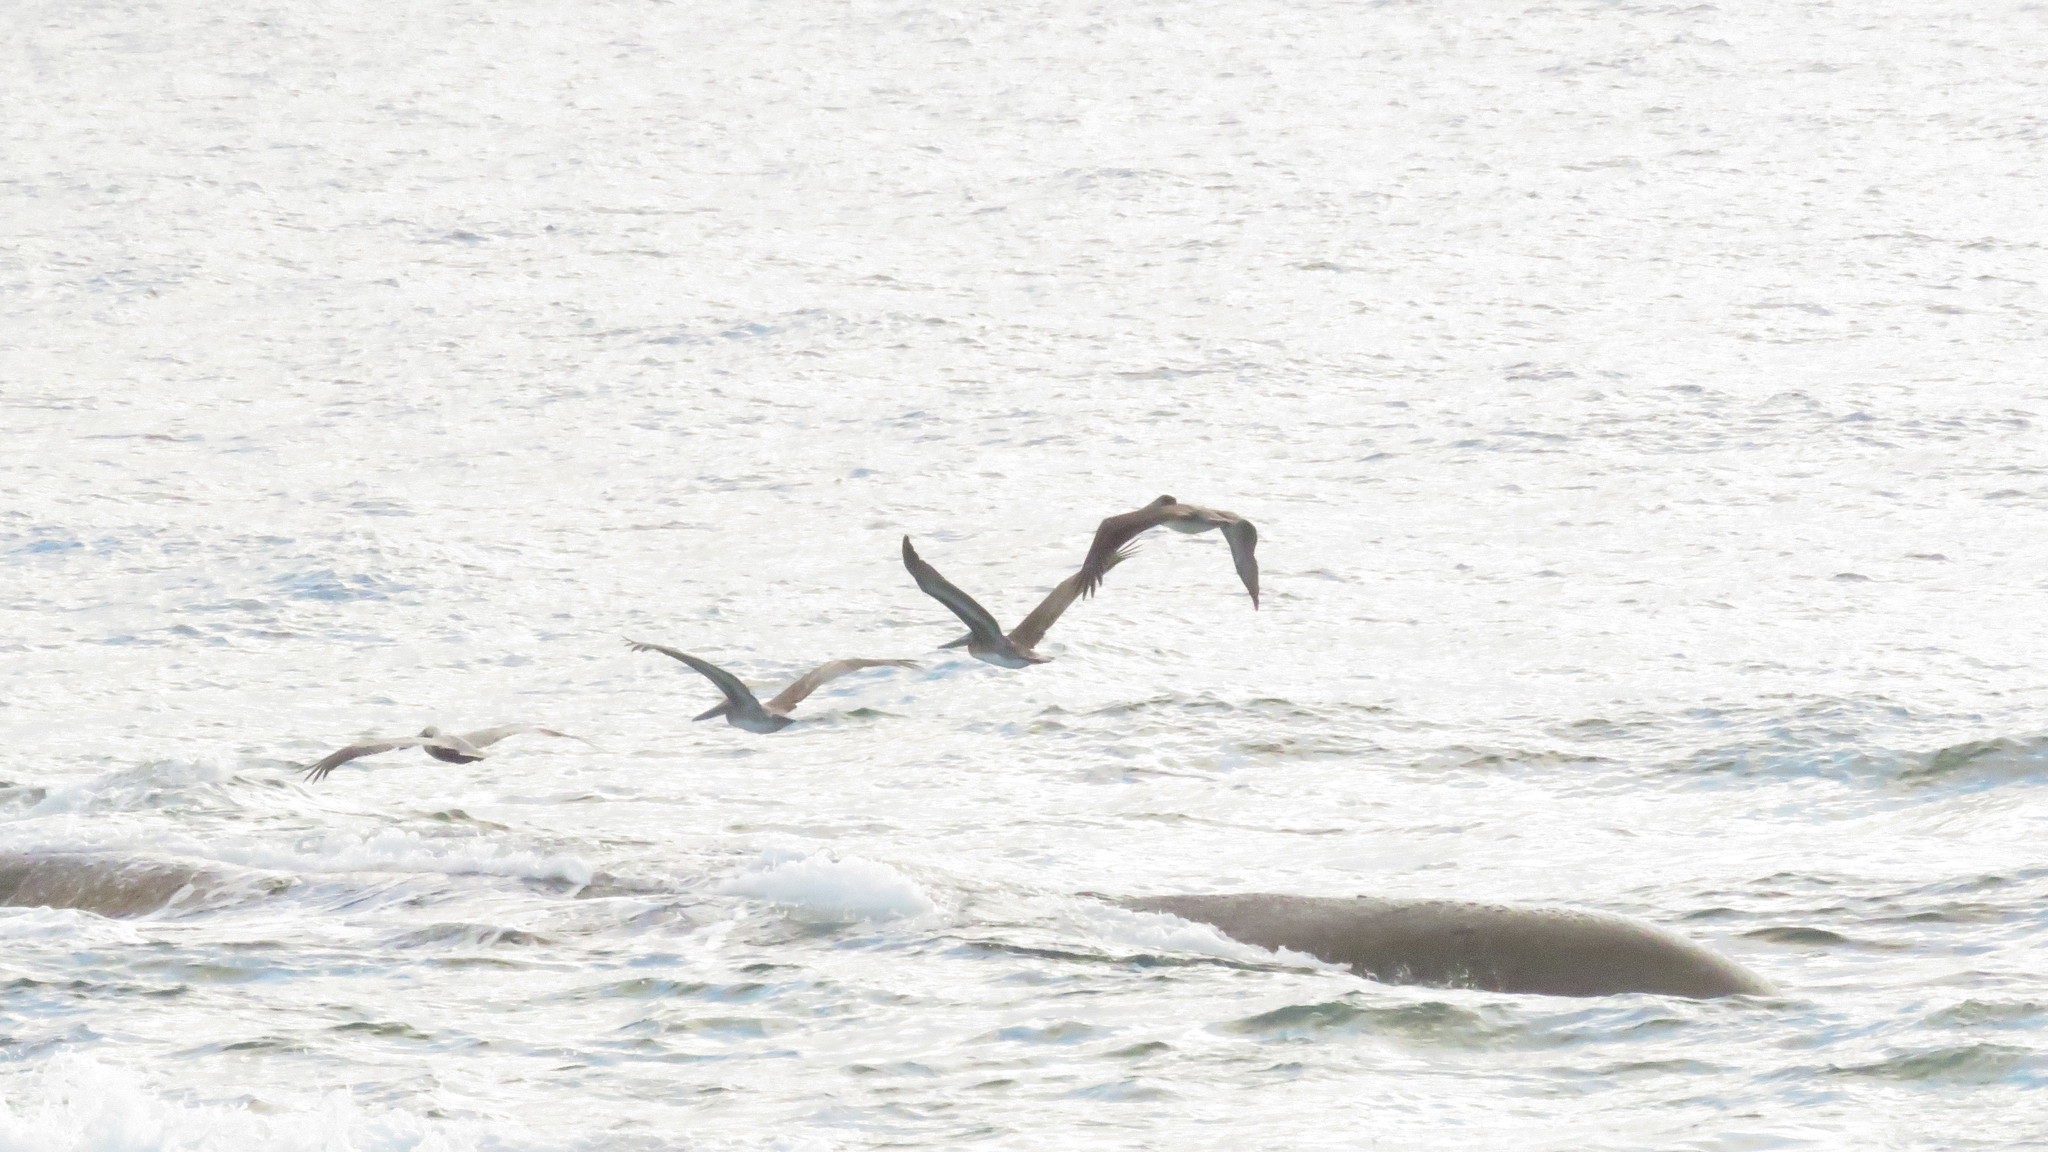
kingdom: Animalia
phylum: Chordata
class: Aves
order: Pelecaniformes
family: Pelecanidae
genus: Pelecanus
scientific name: Pelecanus occidentalis
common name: Brown pelican
